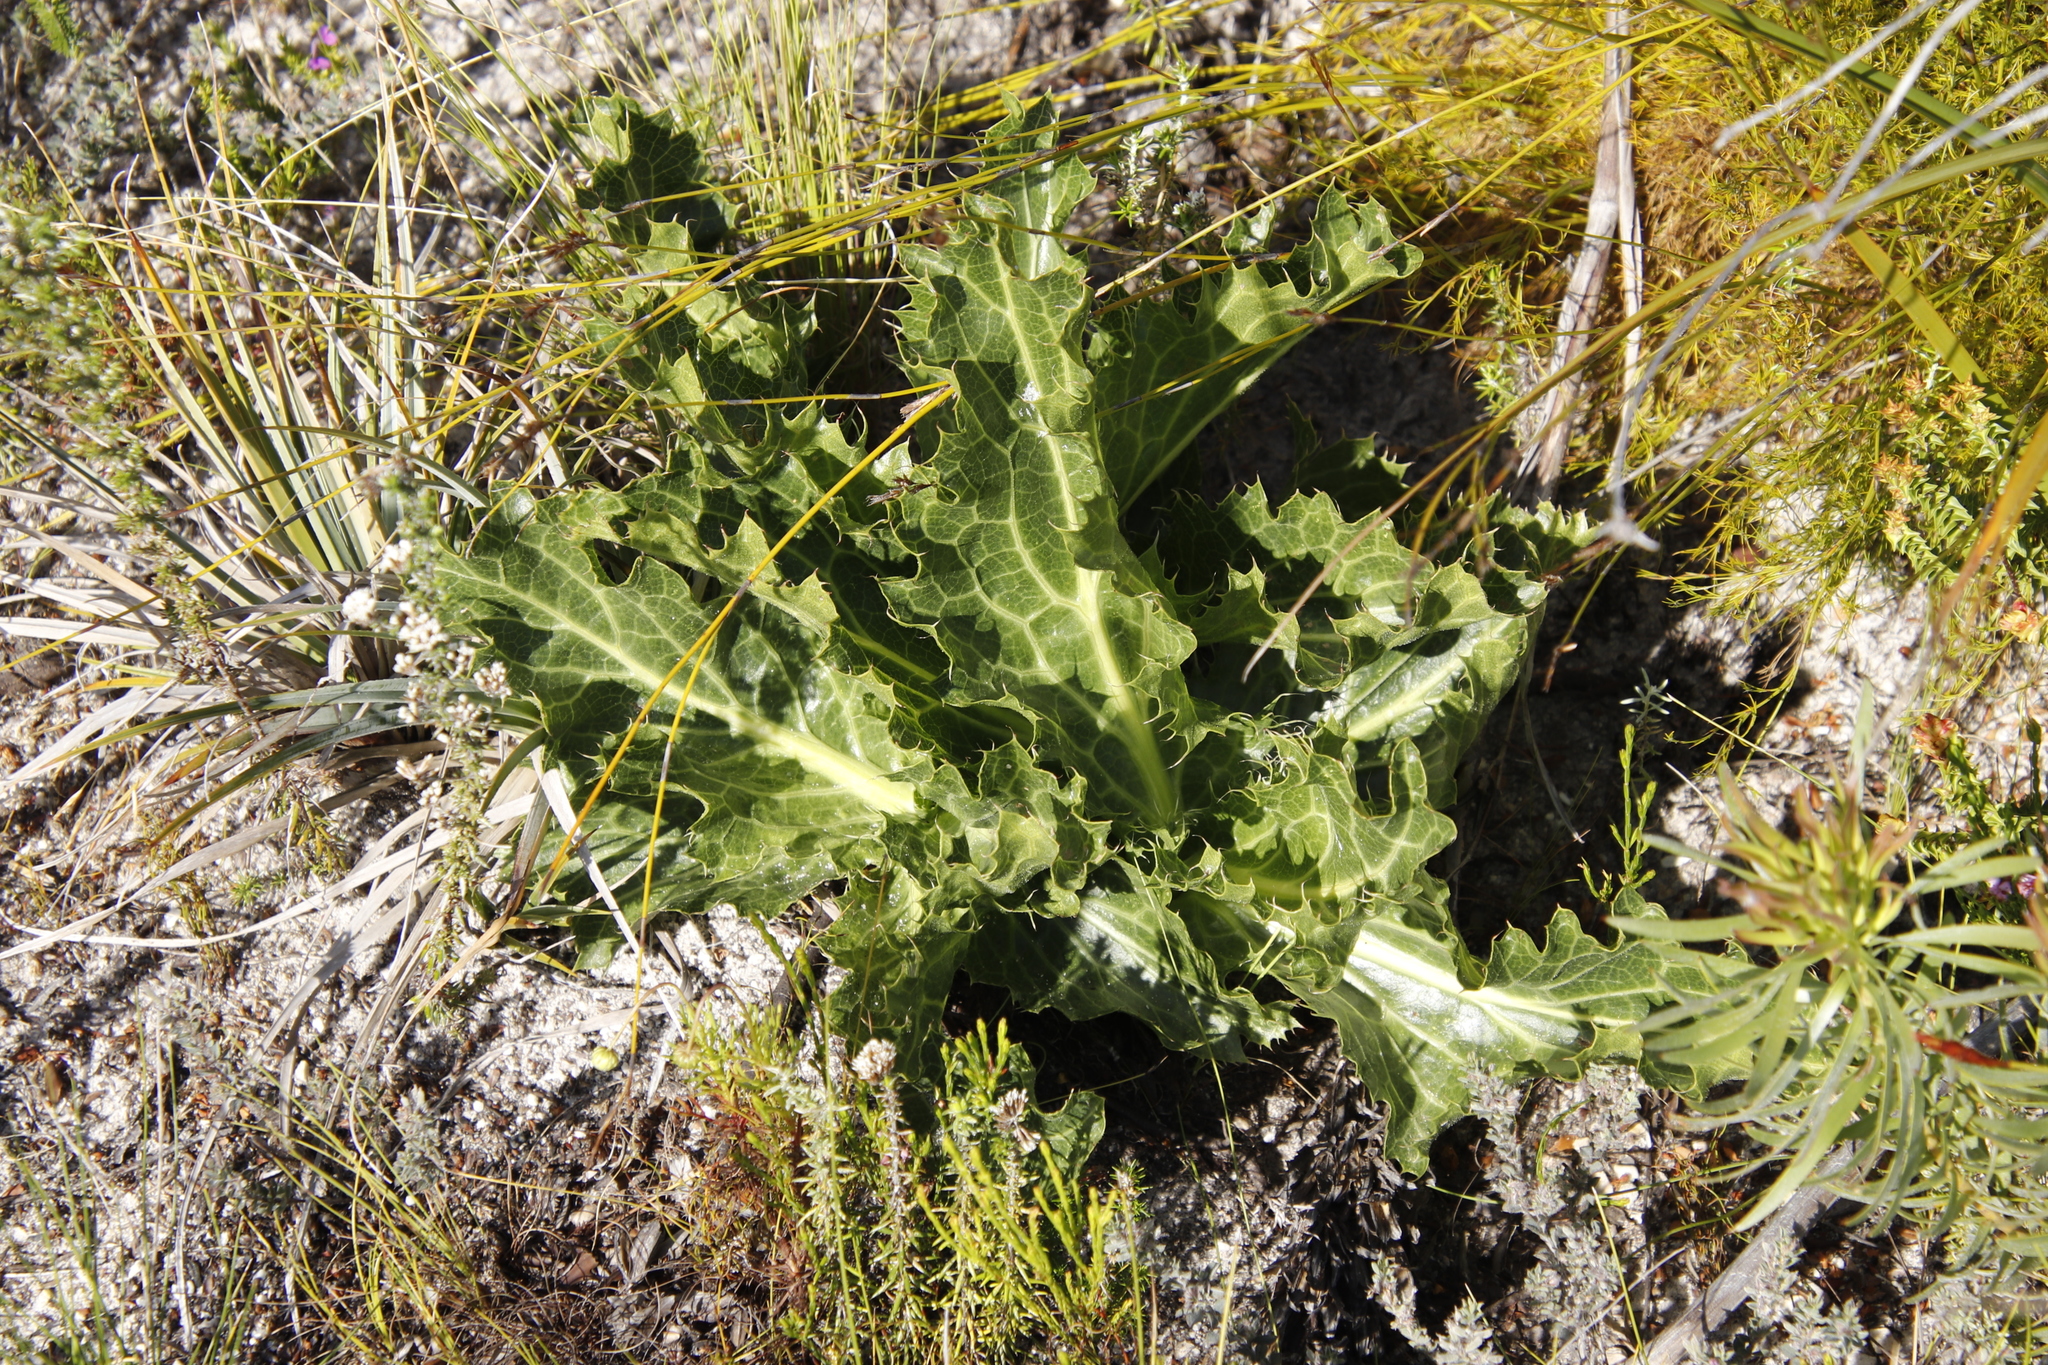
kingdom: Plantae
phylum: Tracheophyta
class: Magnoliopsida
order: Apiales
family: Apiaceae
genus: Lichtensteinia
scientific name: Lichtensteinia lacera
